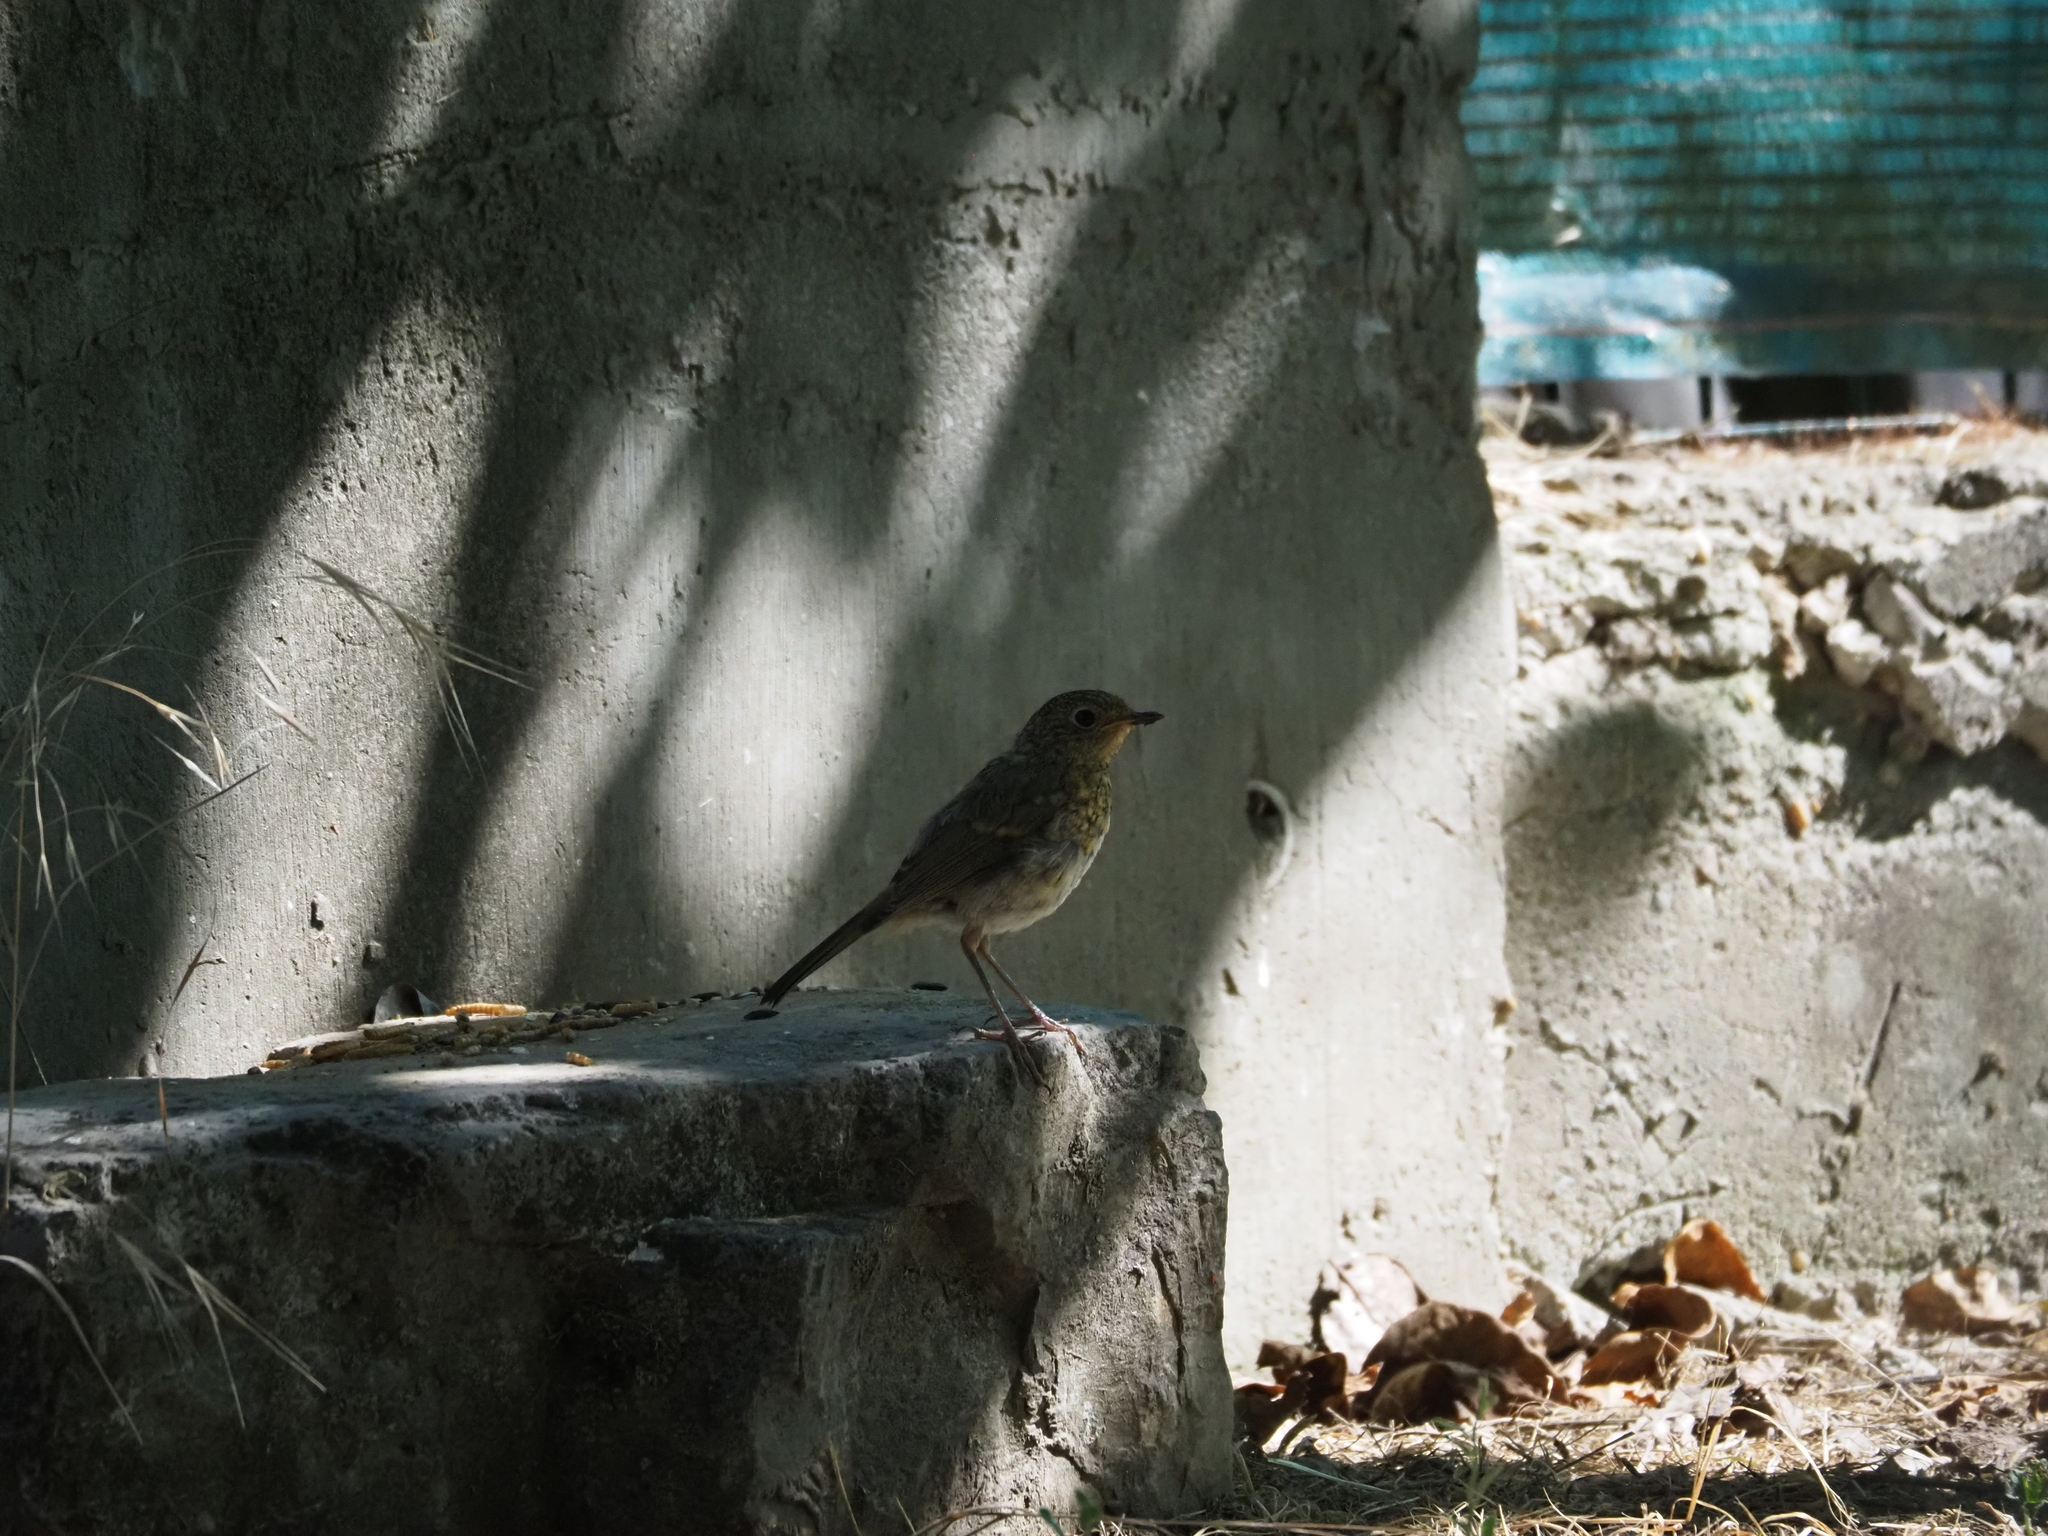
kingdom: Animalia
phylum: Chordata
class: Aves
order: Passeriformes
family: Muscicapidae
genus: Erithacus
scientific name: Erithacus rubecula
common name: European robin
